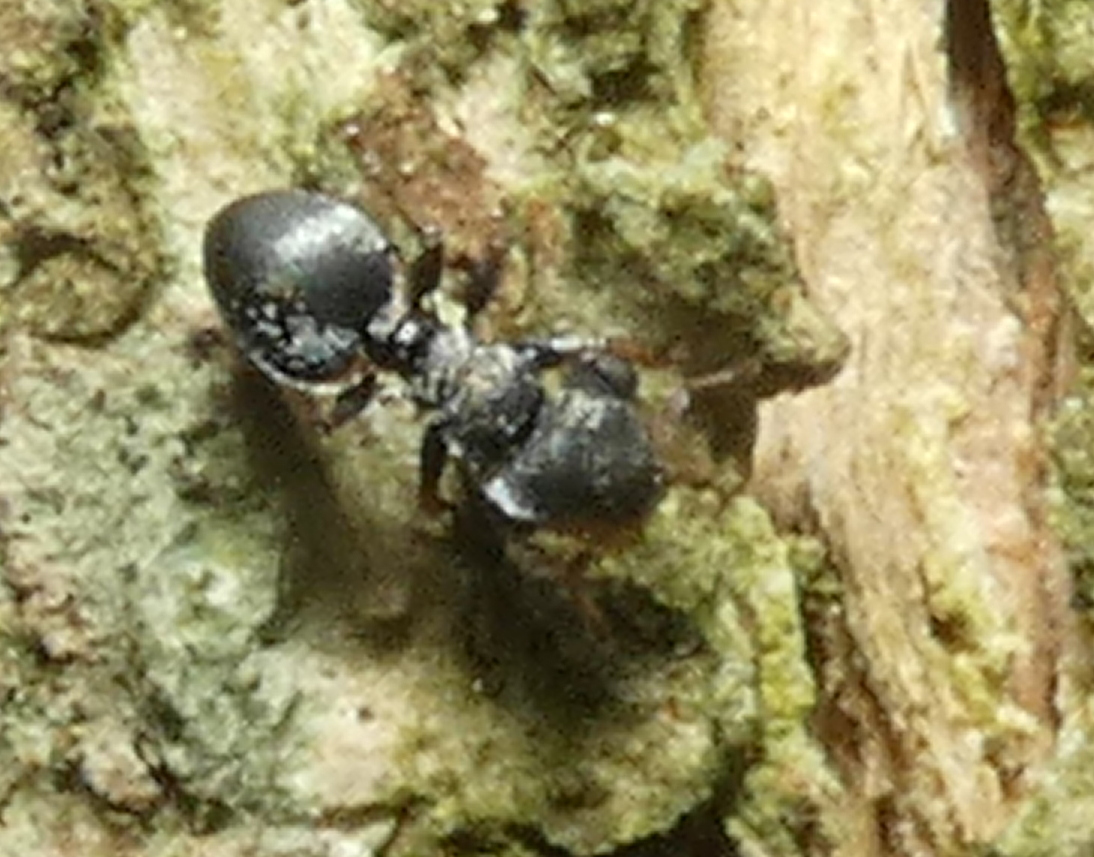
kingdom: Animalia
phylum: Arthropoda
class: Insecta
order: Hymenoptera
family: Formicidae
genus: Cephalotes
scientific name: Cephalotes
